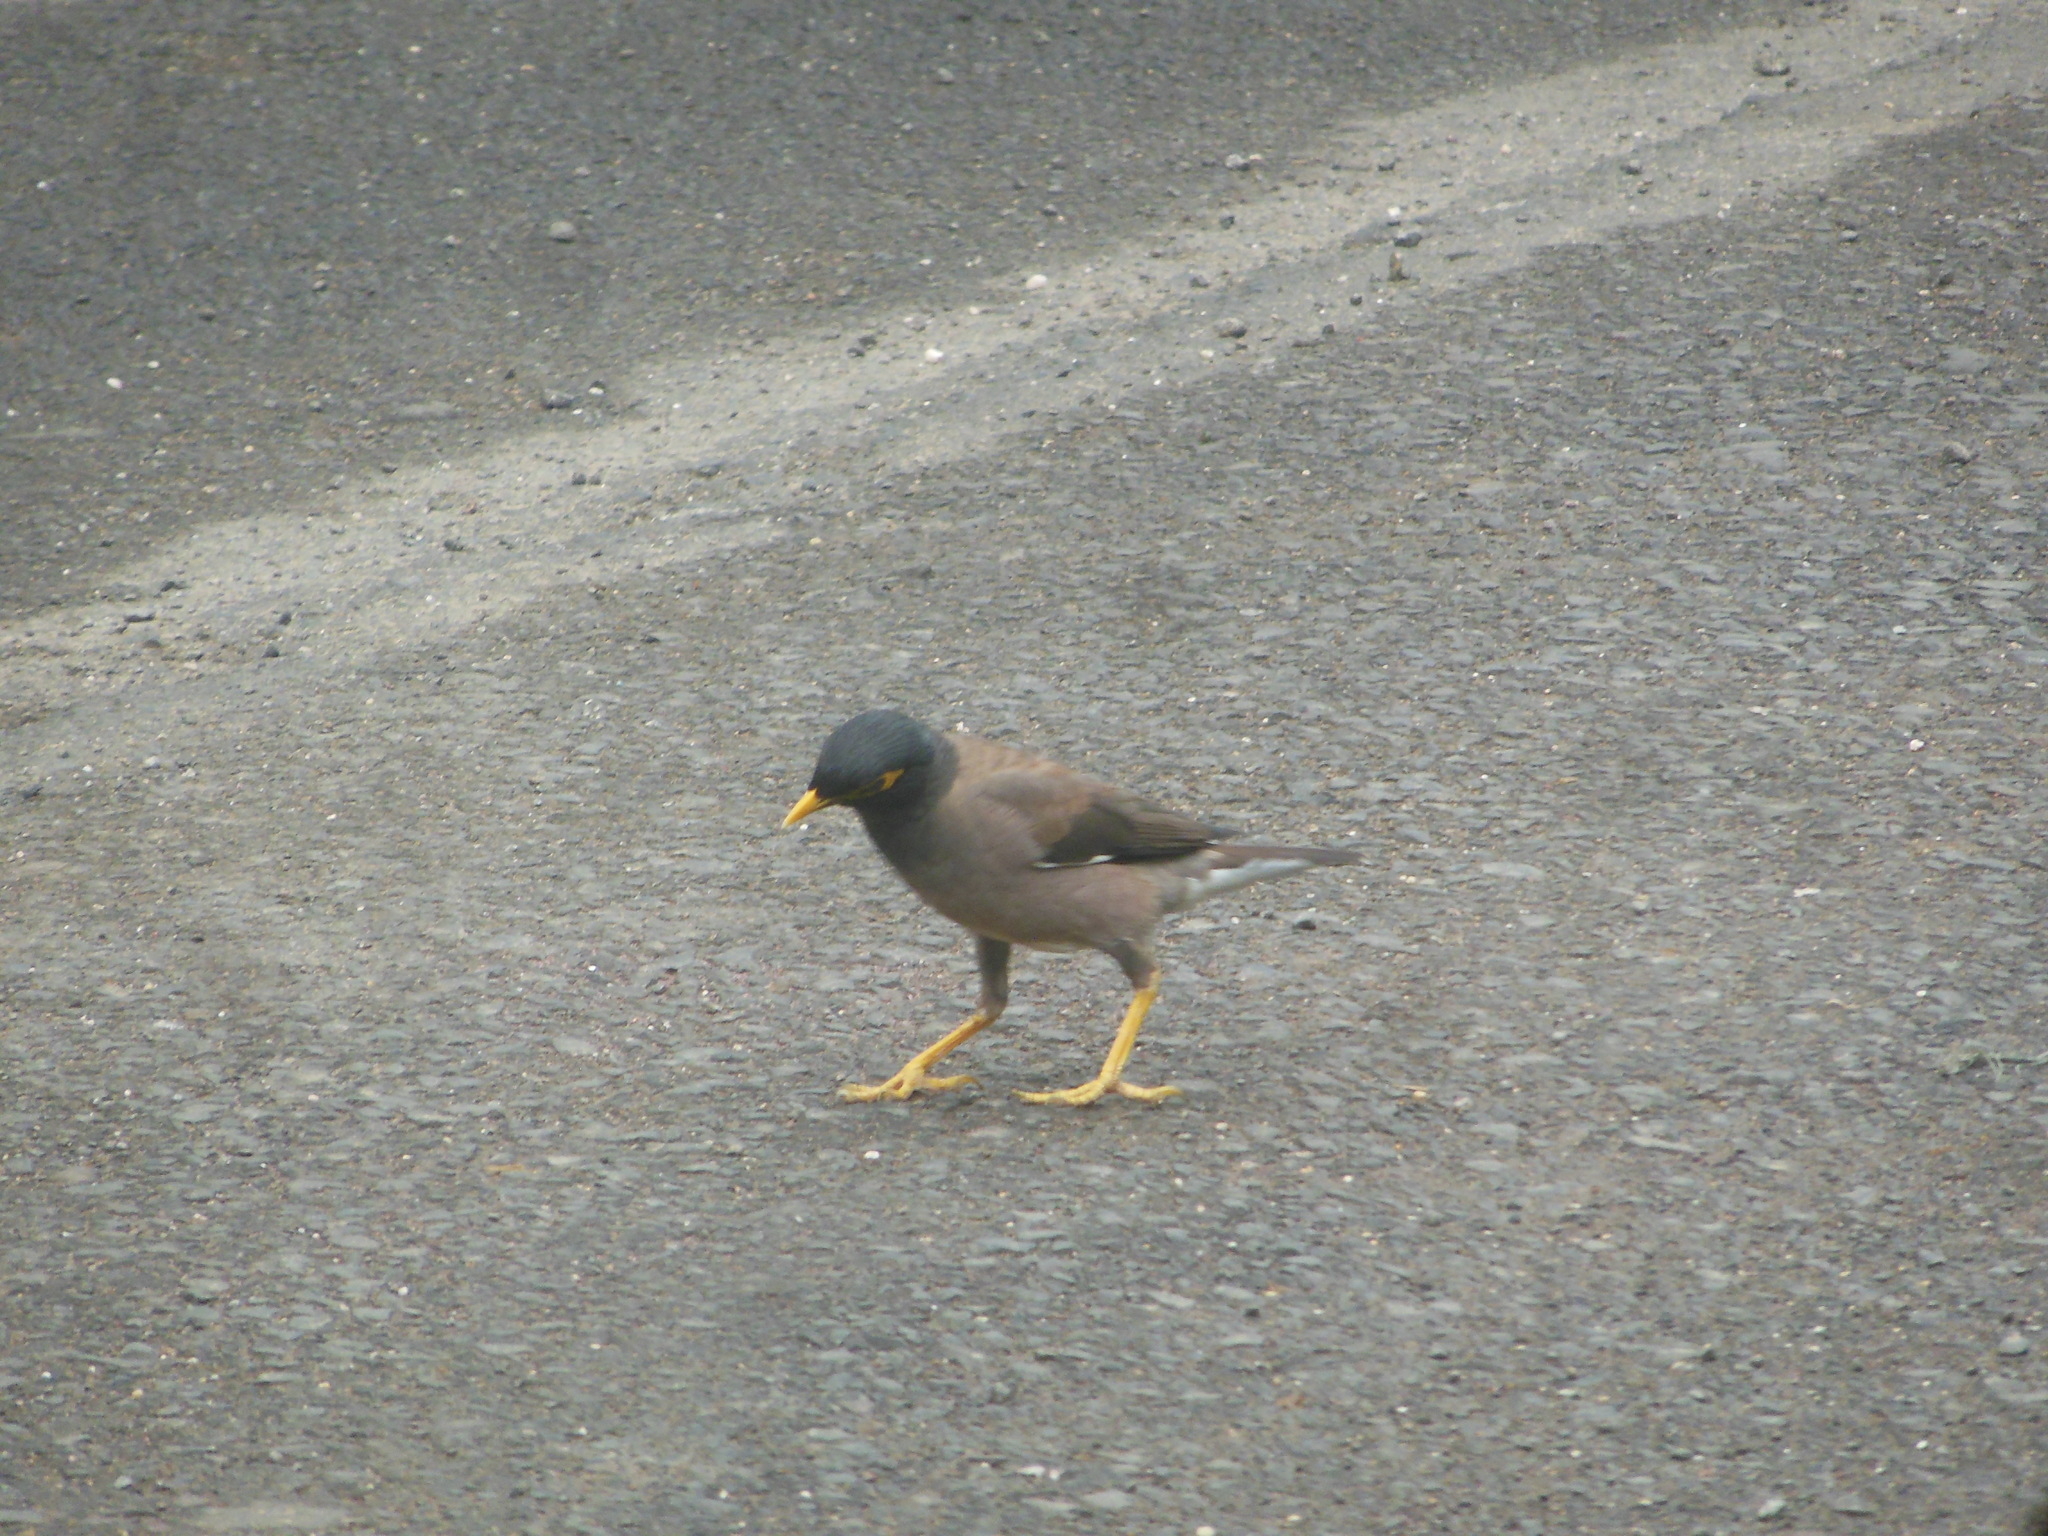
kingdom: Animalia
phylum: Chordata
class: Aves
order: Passeriformes
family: Sturnidae
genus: Acridotheres
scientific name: Acridotheres tristis
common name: Common myna
